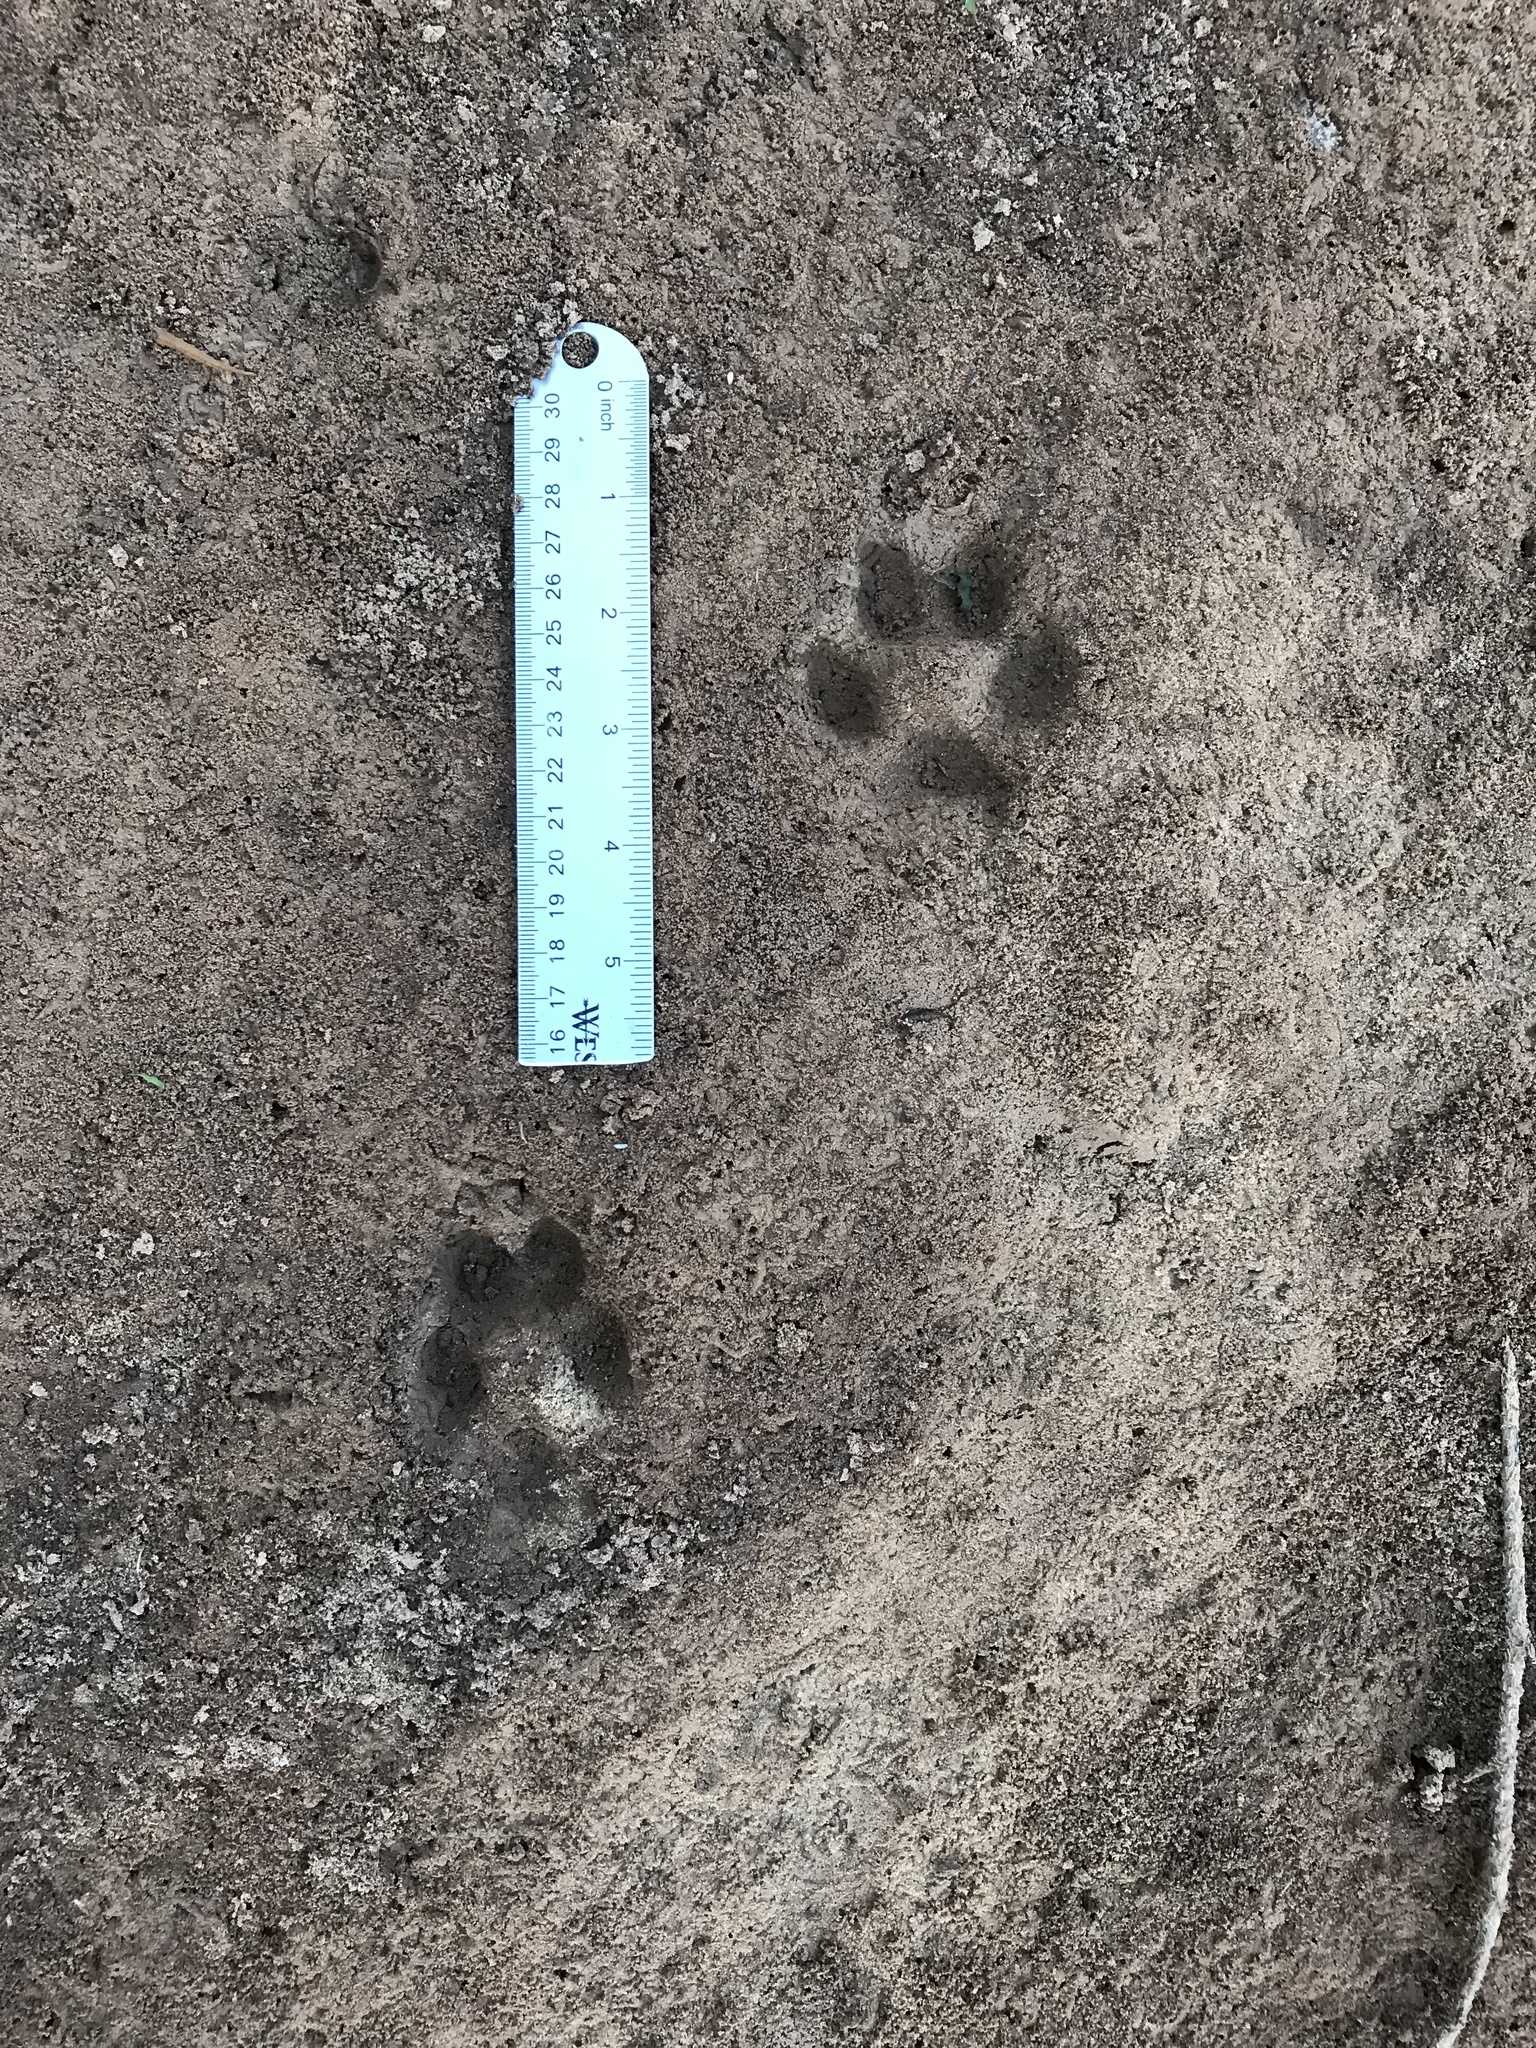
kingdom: Animalia
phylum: Chordata
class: Mammalia
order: Carnivora
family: Canidae
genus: Canis
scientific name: Canis latrans
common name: Coyote
